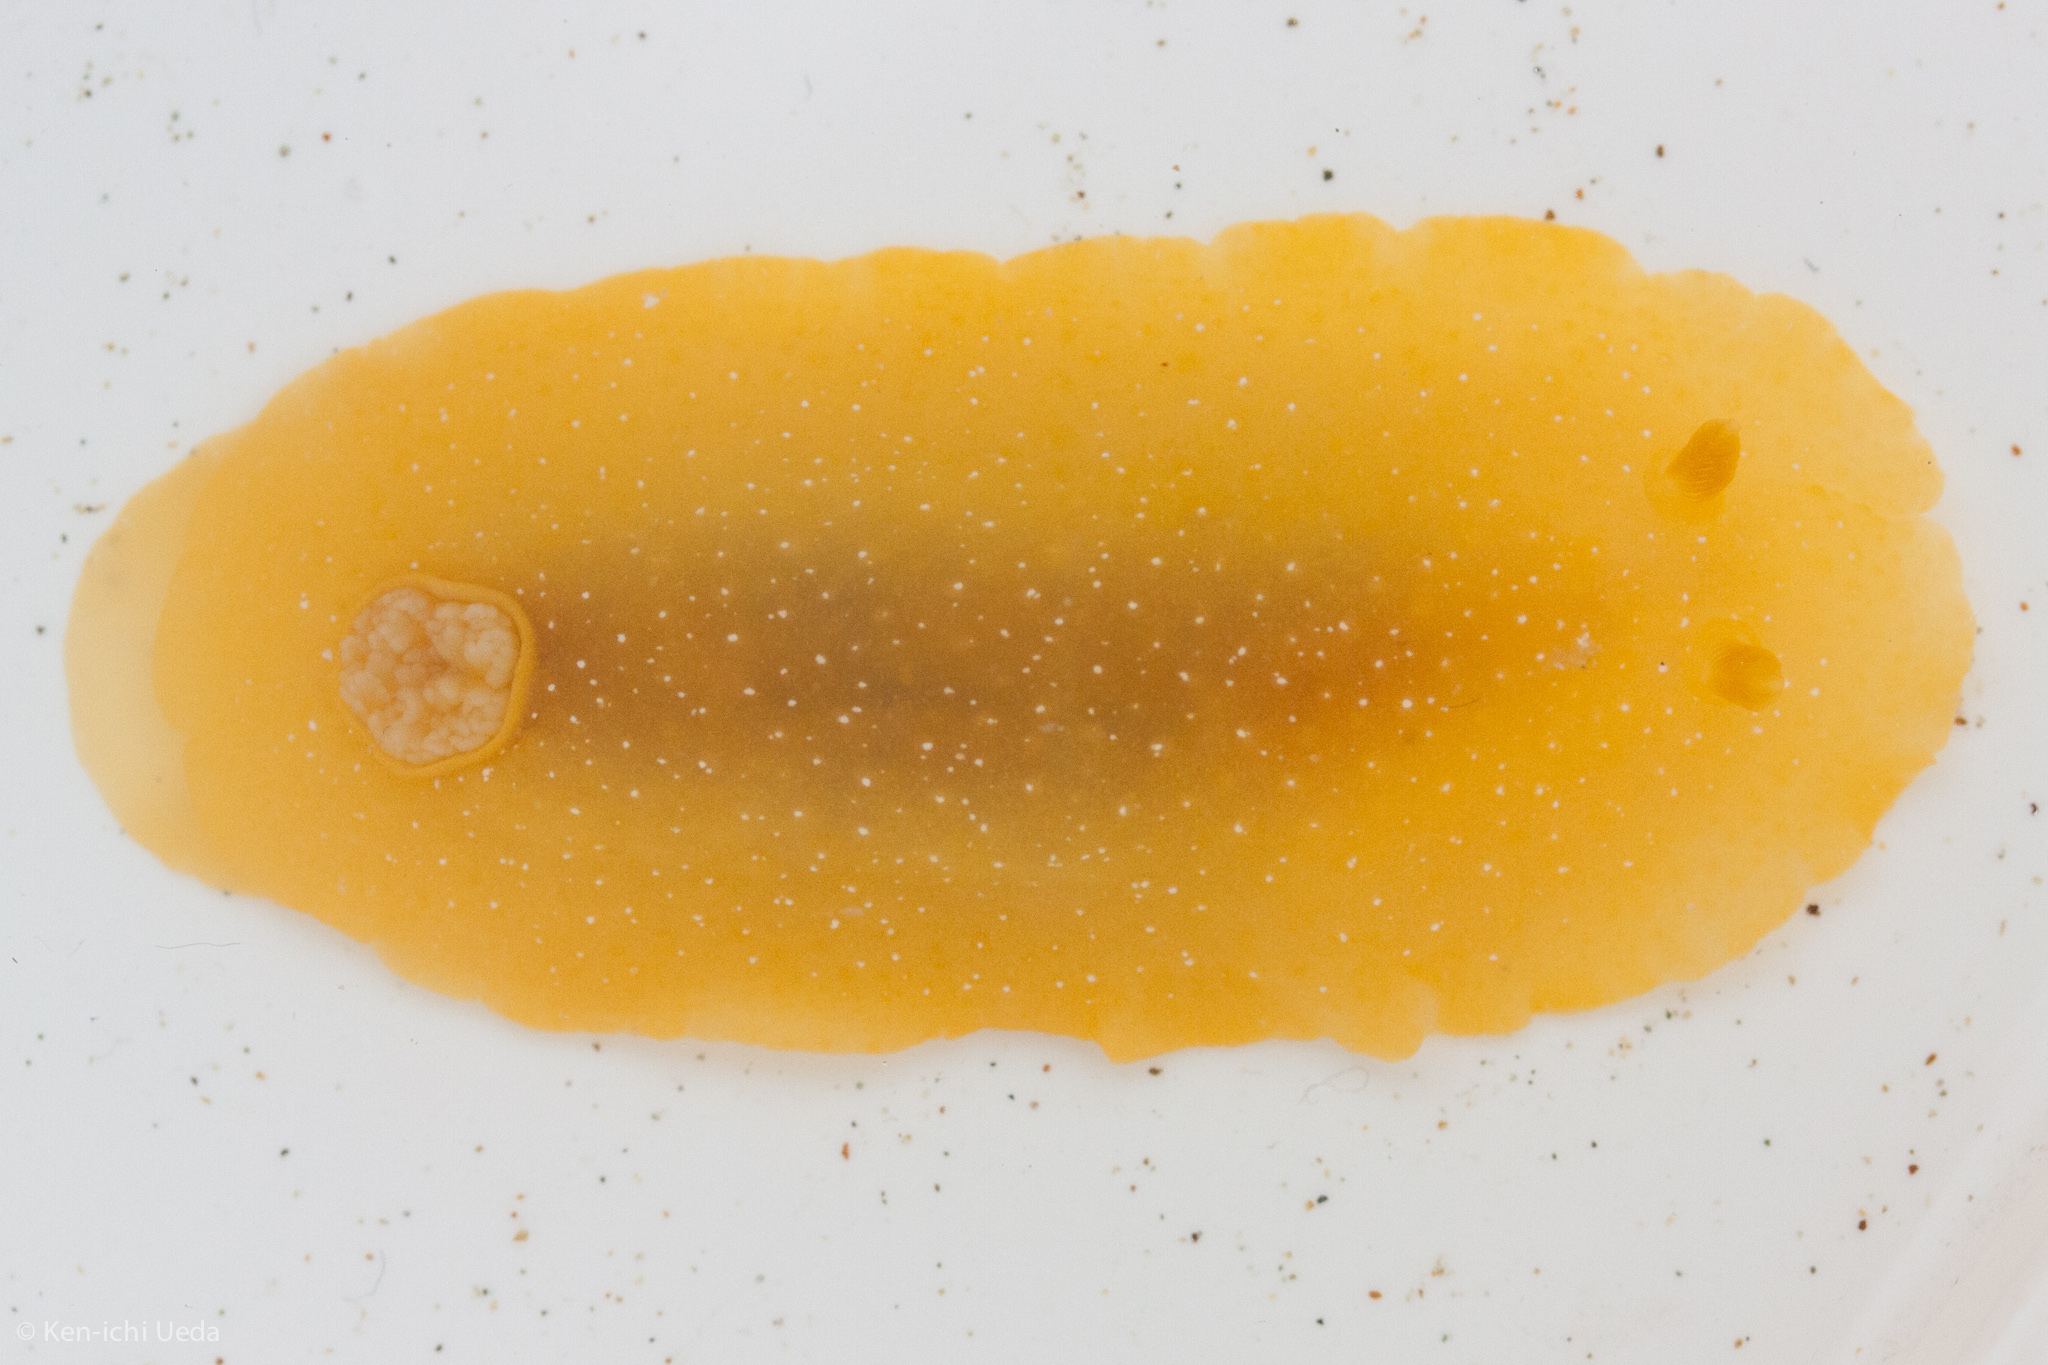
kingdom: Animalia
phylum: Mollusca
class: Gastropoda
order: Nudibranchia
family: Dendrodorididae
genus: Doriopsilla
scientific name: Doriopsilla fulva
